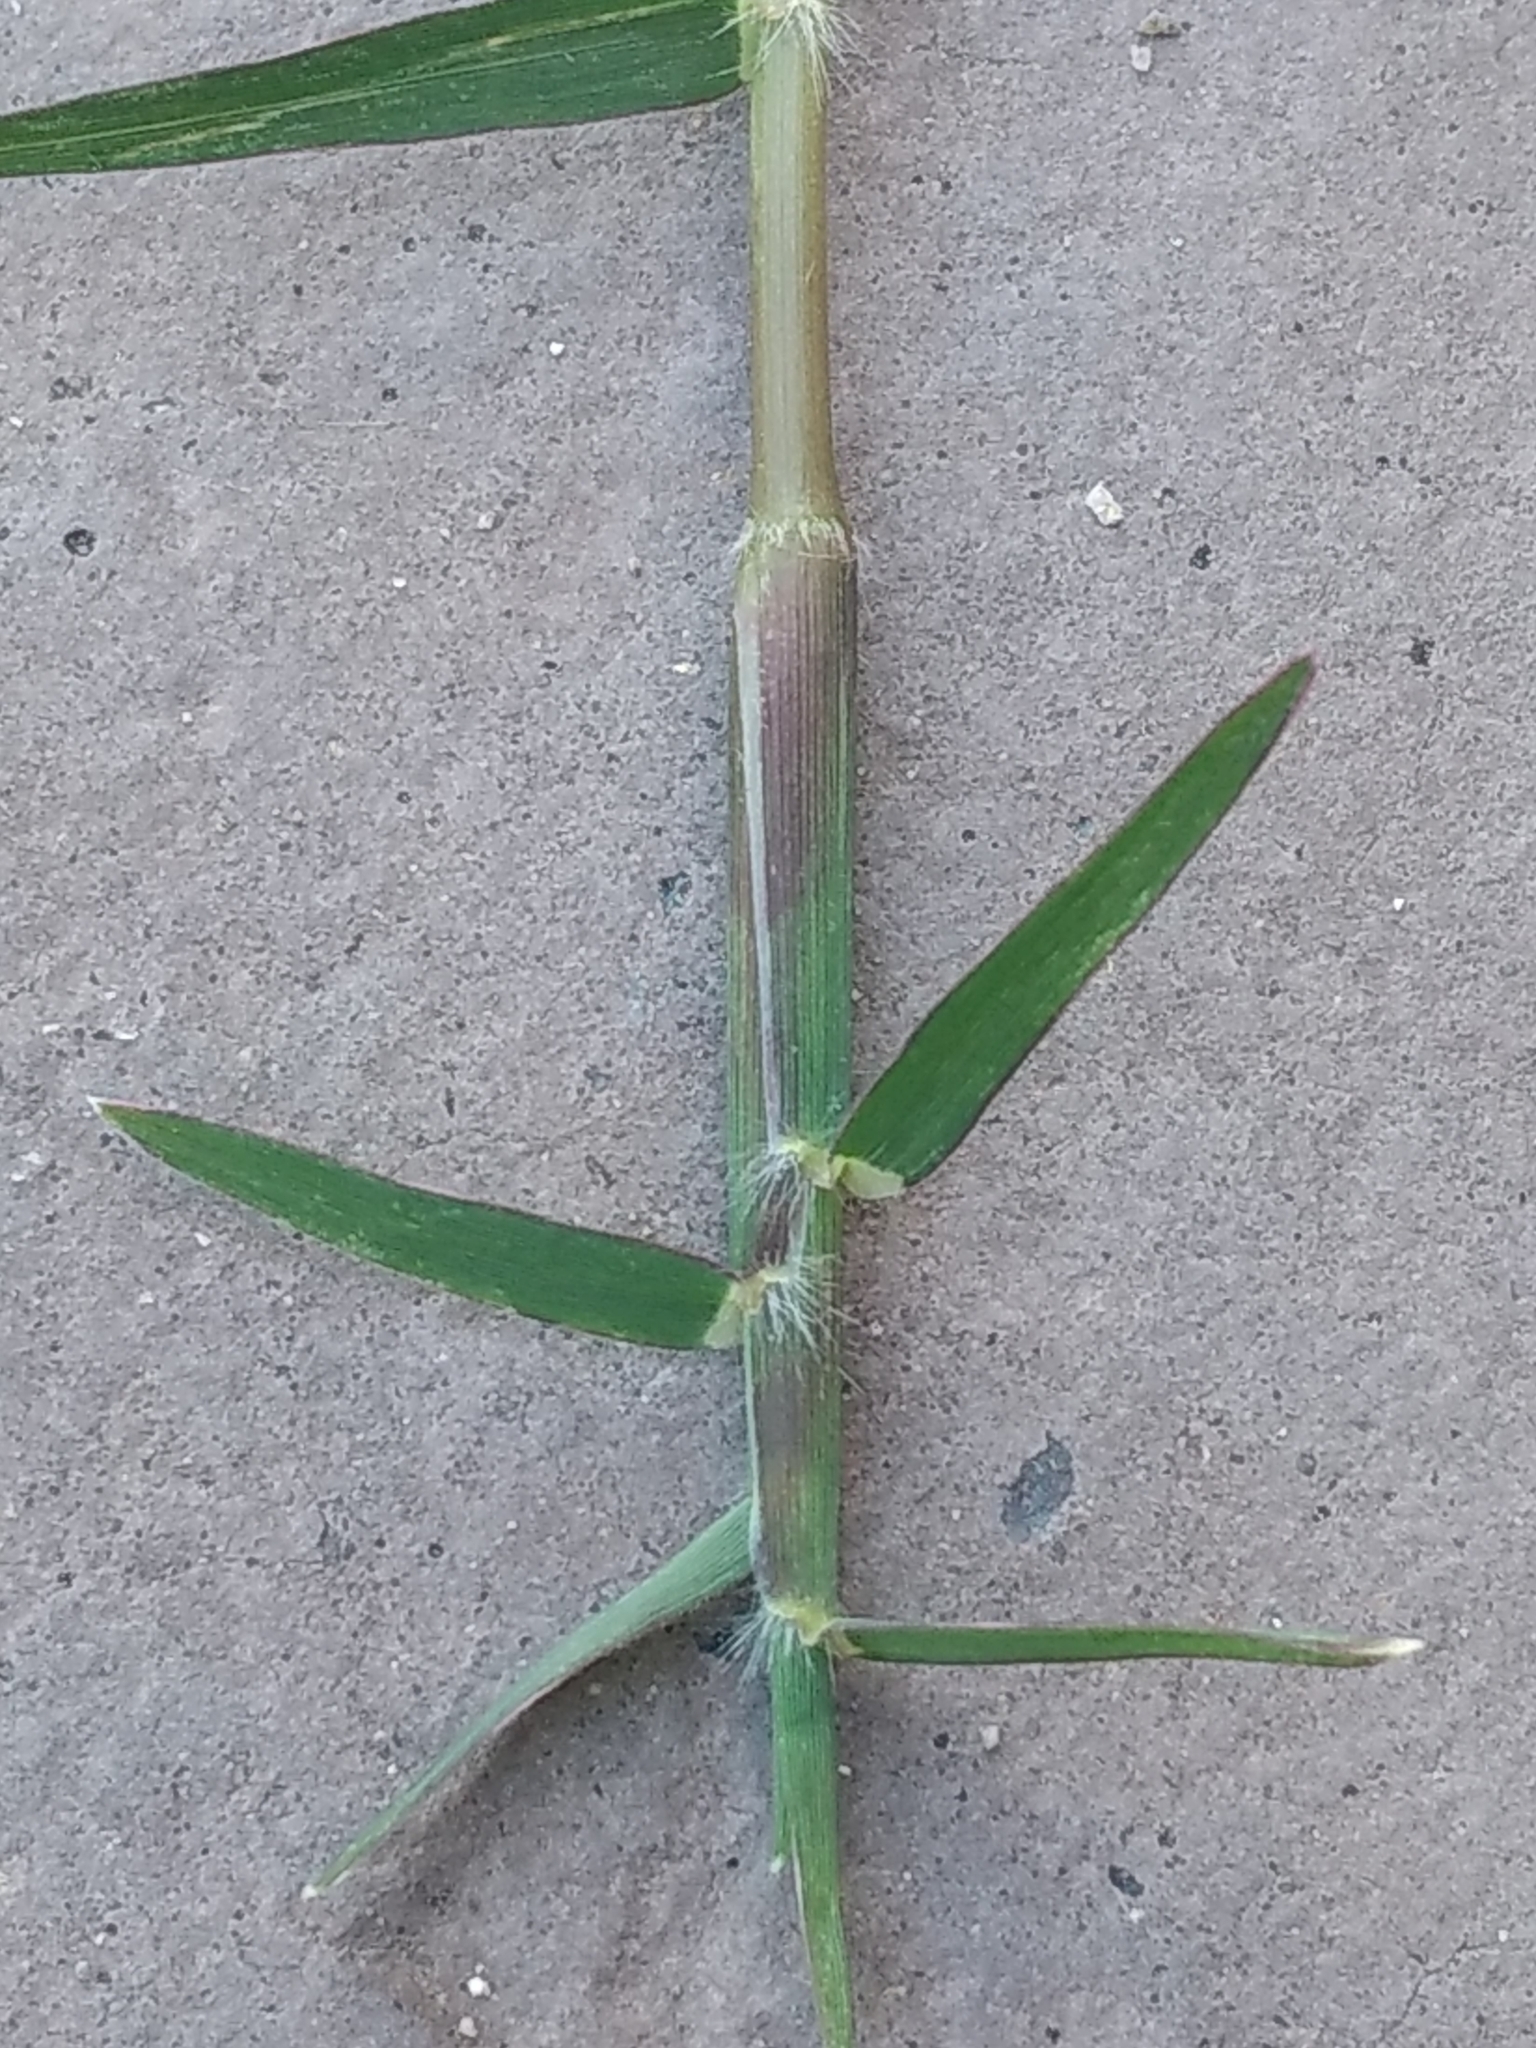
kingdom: Plantae
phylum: Tracheophyta
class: Liliopsida
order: Poales
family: Poaceae
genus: Cynodon
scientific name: Cynodon dactylon
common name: Bermuda grass
